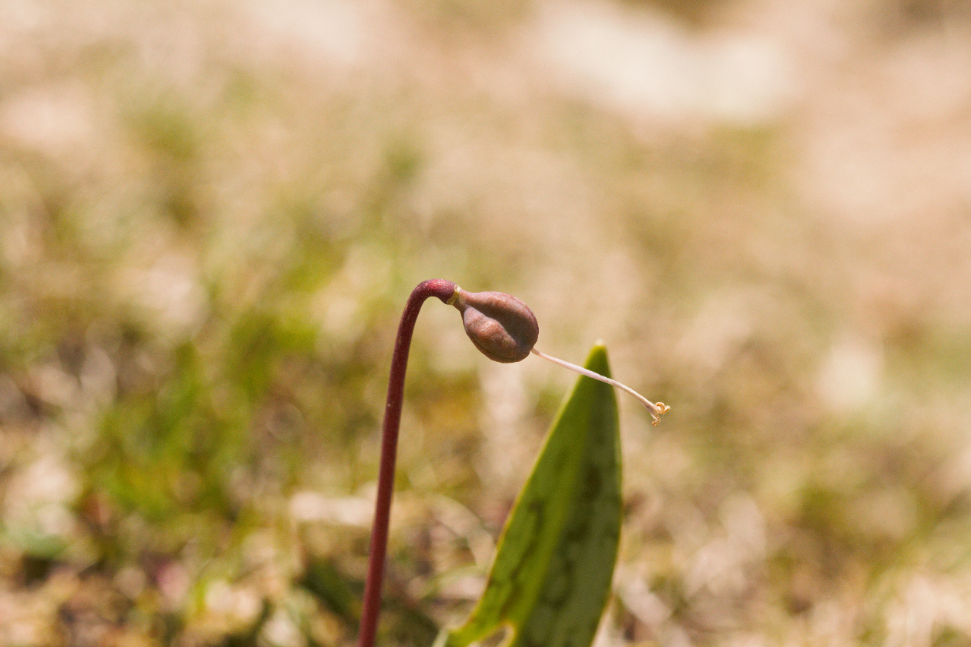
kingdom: Plantae
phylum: Tracheophyta
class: Liliopsida
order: Liliales
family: Liliaceae
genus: Erythronium
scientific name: Erythronium dens-canis
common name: Dog's-tooth-violet
